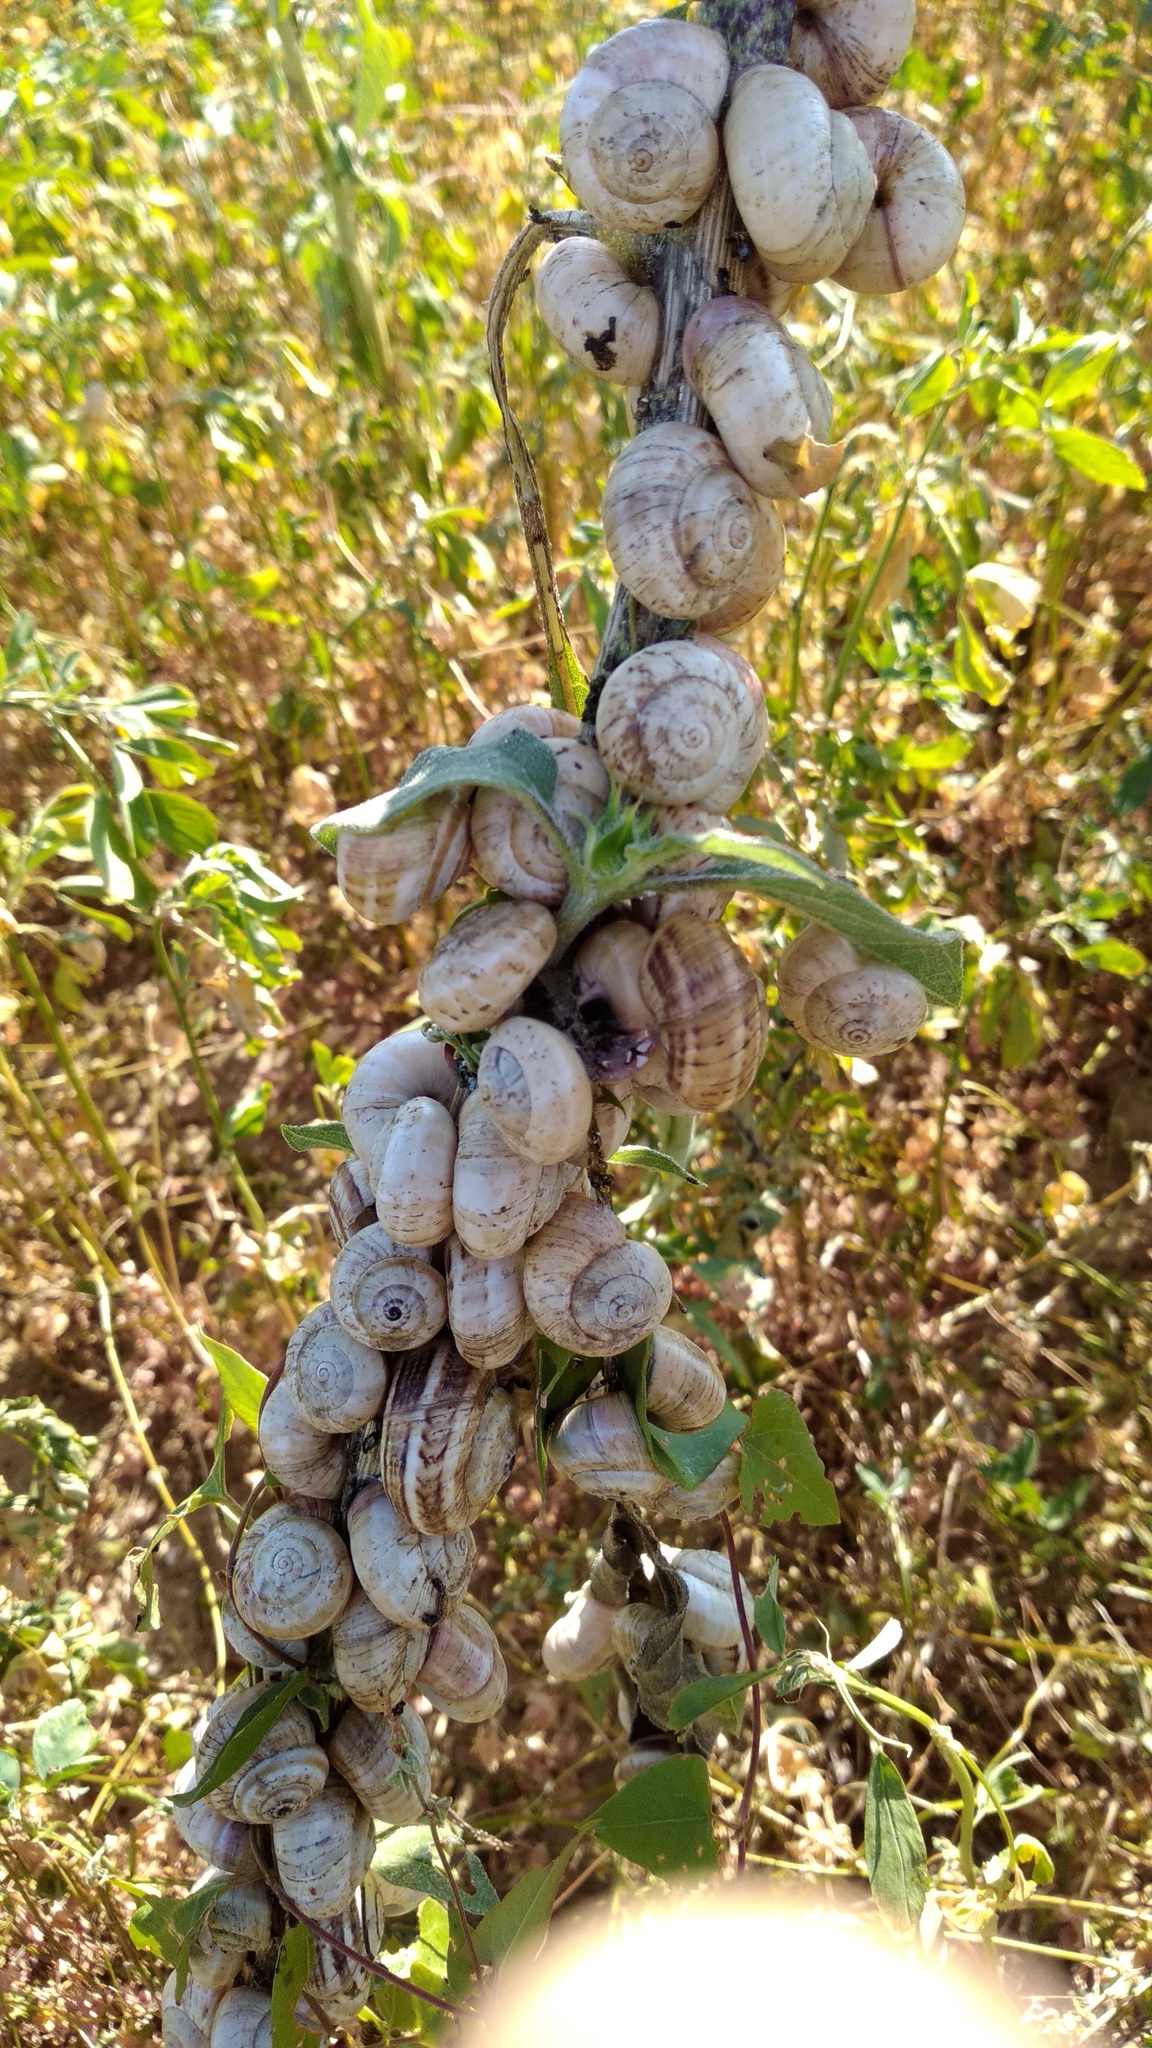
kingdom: Animalia
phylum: Mollusca
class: Gastropoda
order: Stylommatophora
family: Helicidae
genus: Theba
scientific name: Theba pisana
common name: White snail
